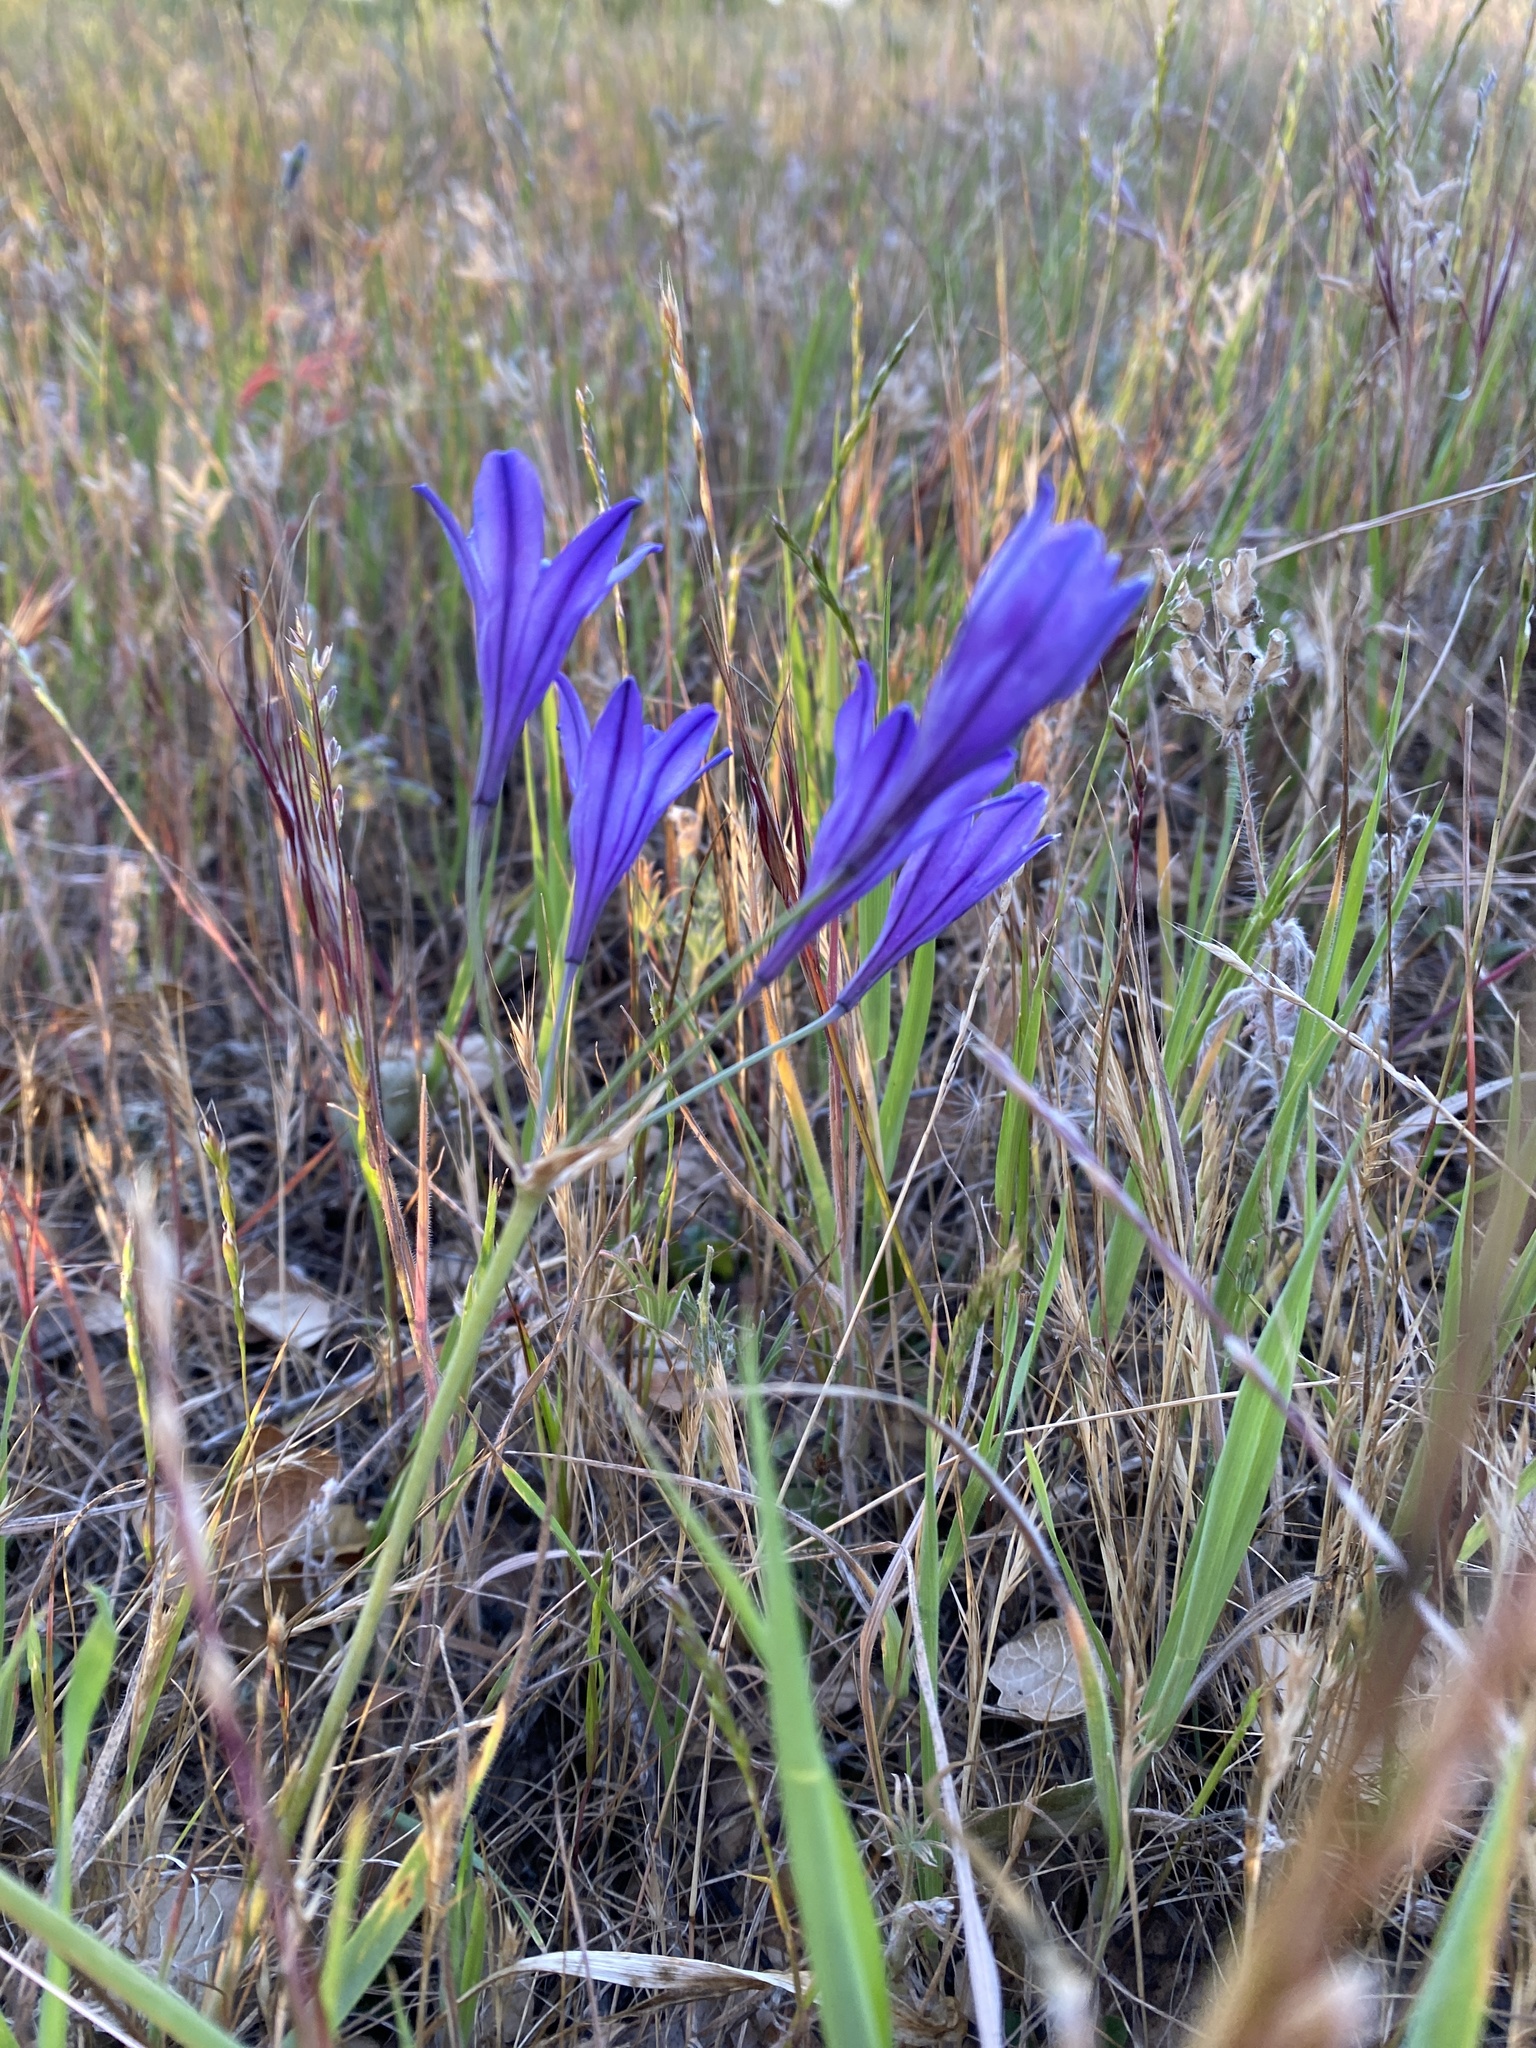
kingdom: Plantae
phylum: Tracheophyta
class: Liliopsida
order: Asparagales
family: Asparagaceae
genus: Triteleia
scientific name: Triteleia laxa
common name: Triplet-lily
